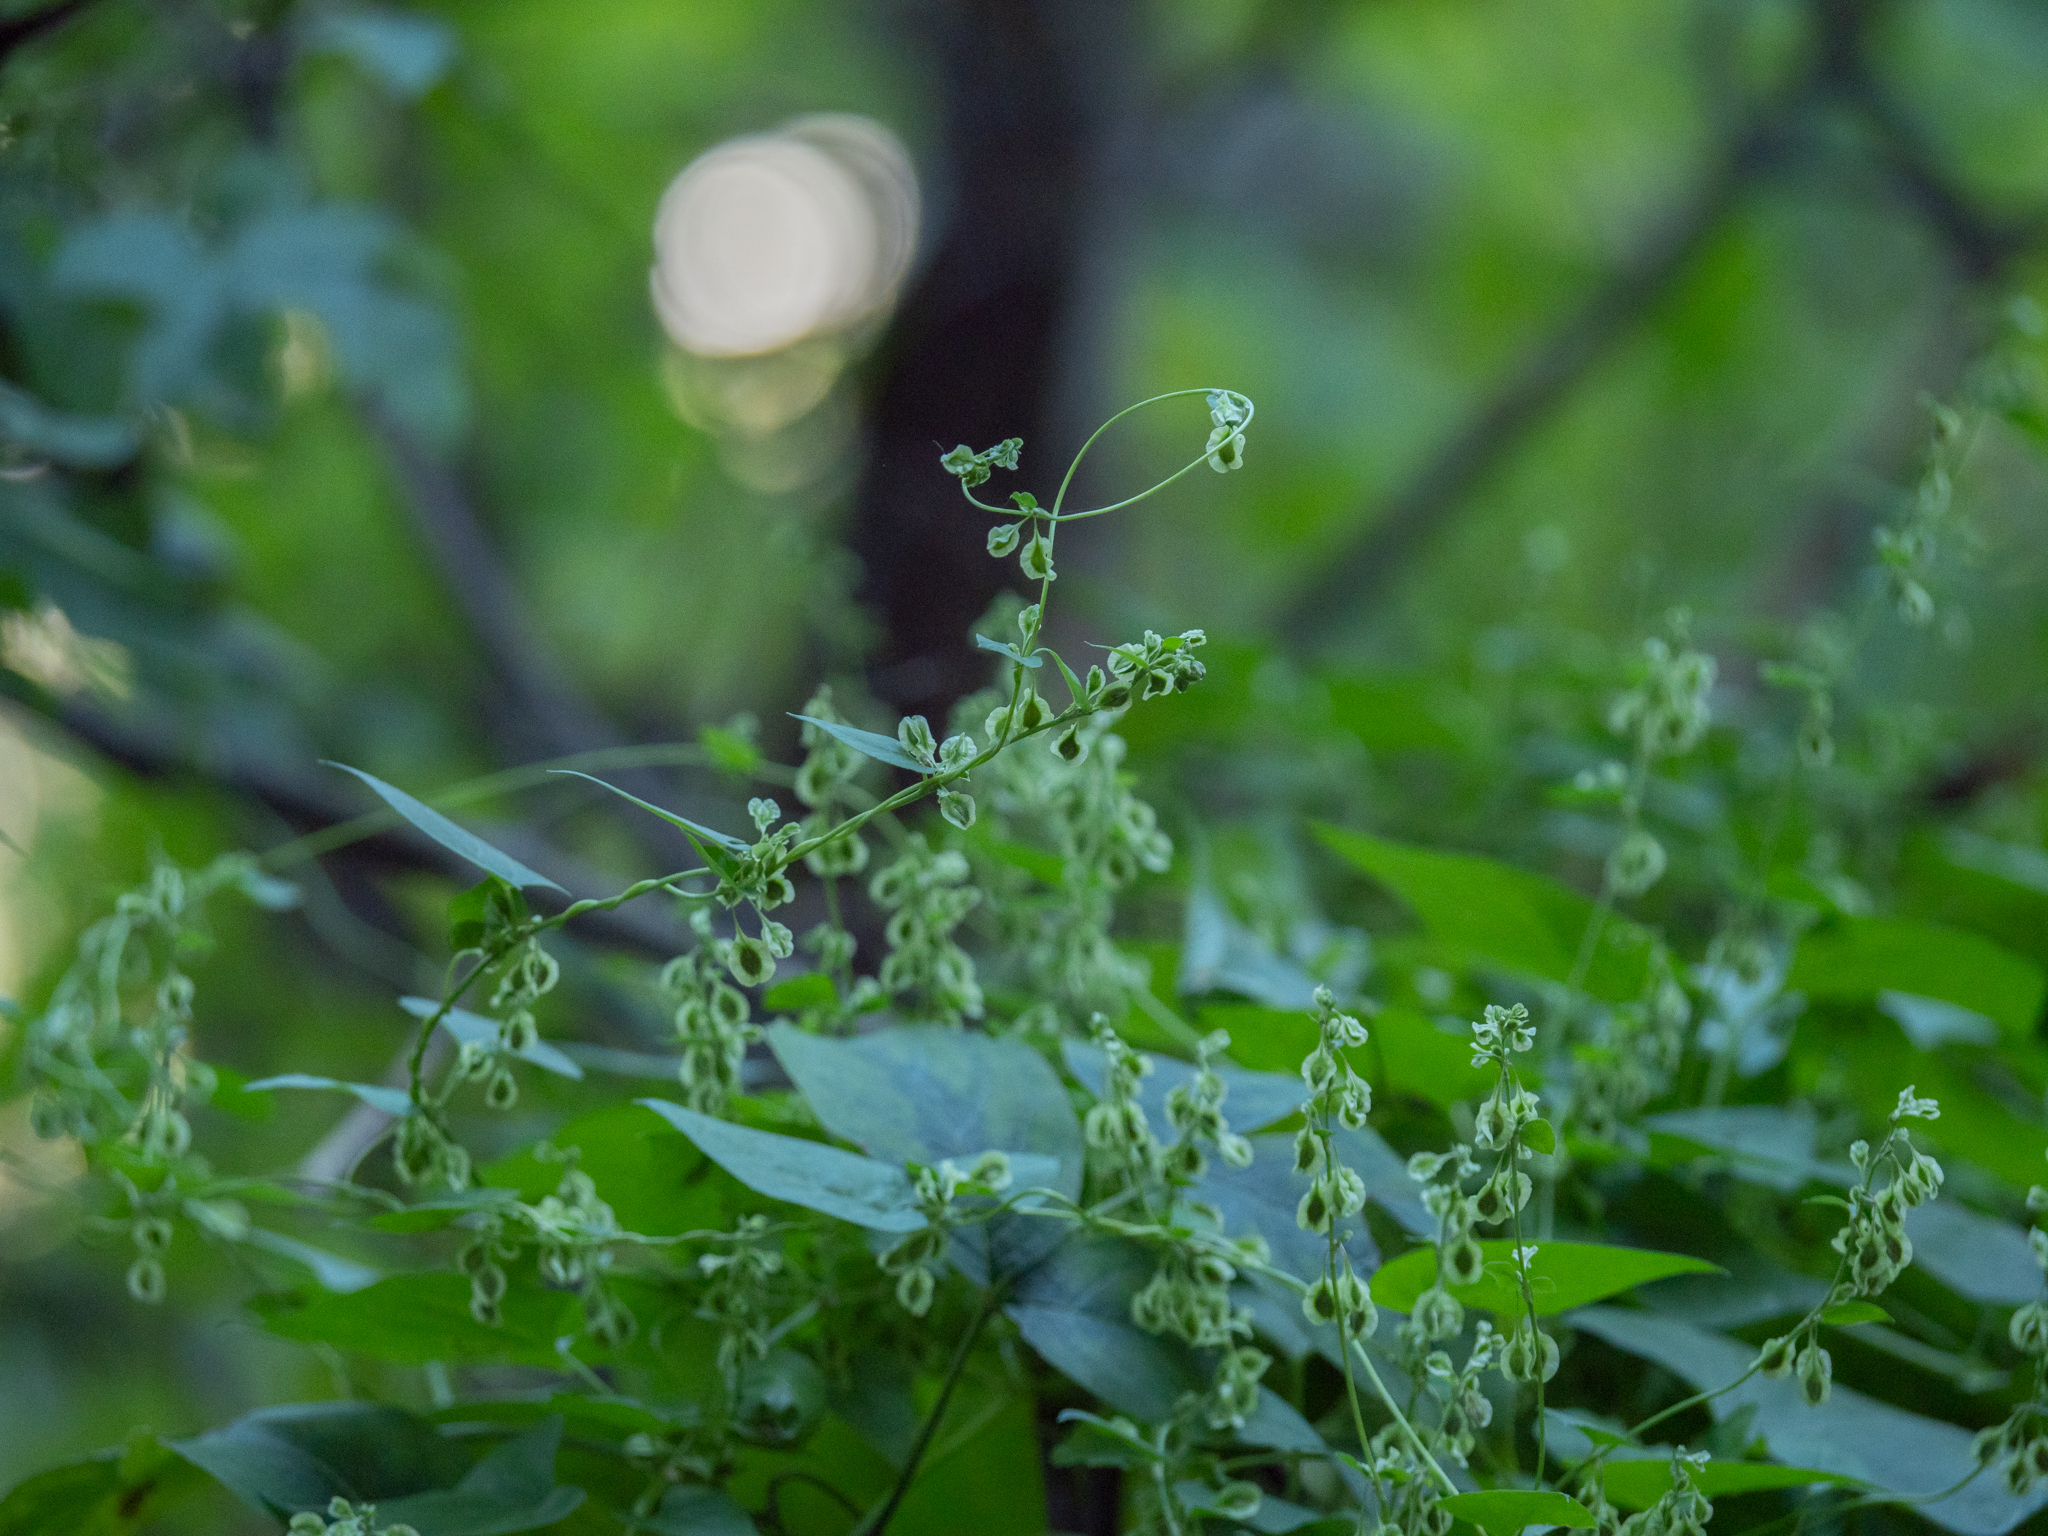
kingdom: Plantae
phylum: Tracheophyta
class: Magnoliopsida
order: Caryophyllales
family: Polygonaceae
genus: Fallopia
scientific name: Fallopia dumetorum
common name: Copse-bindweed
